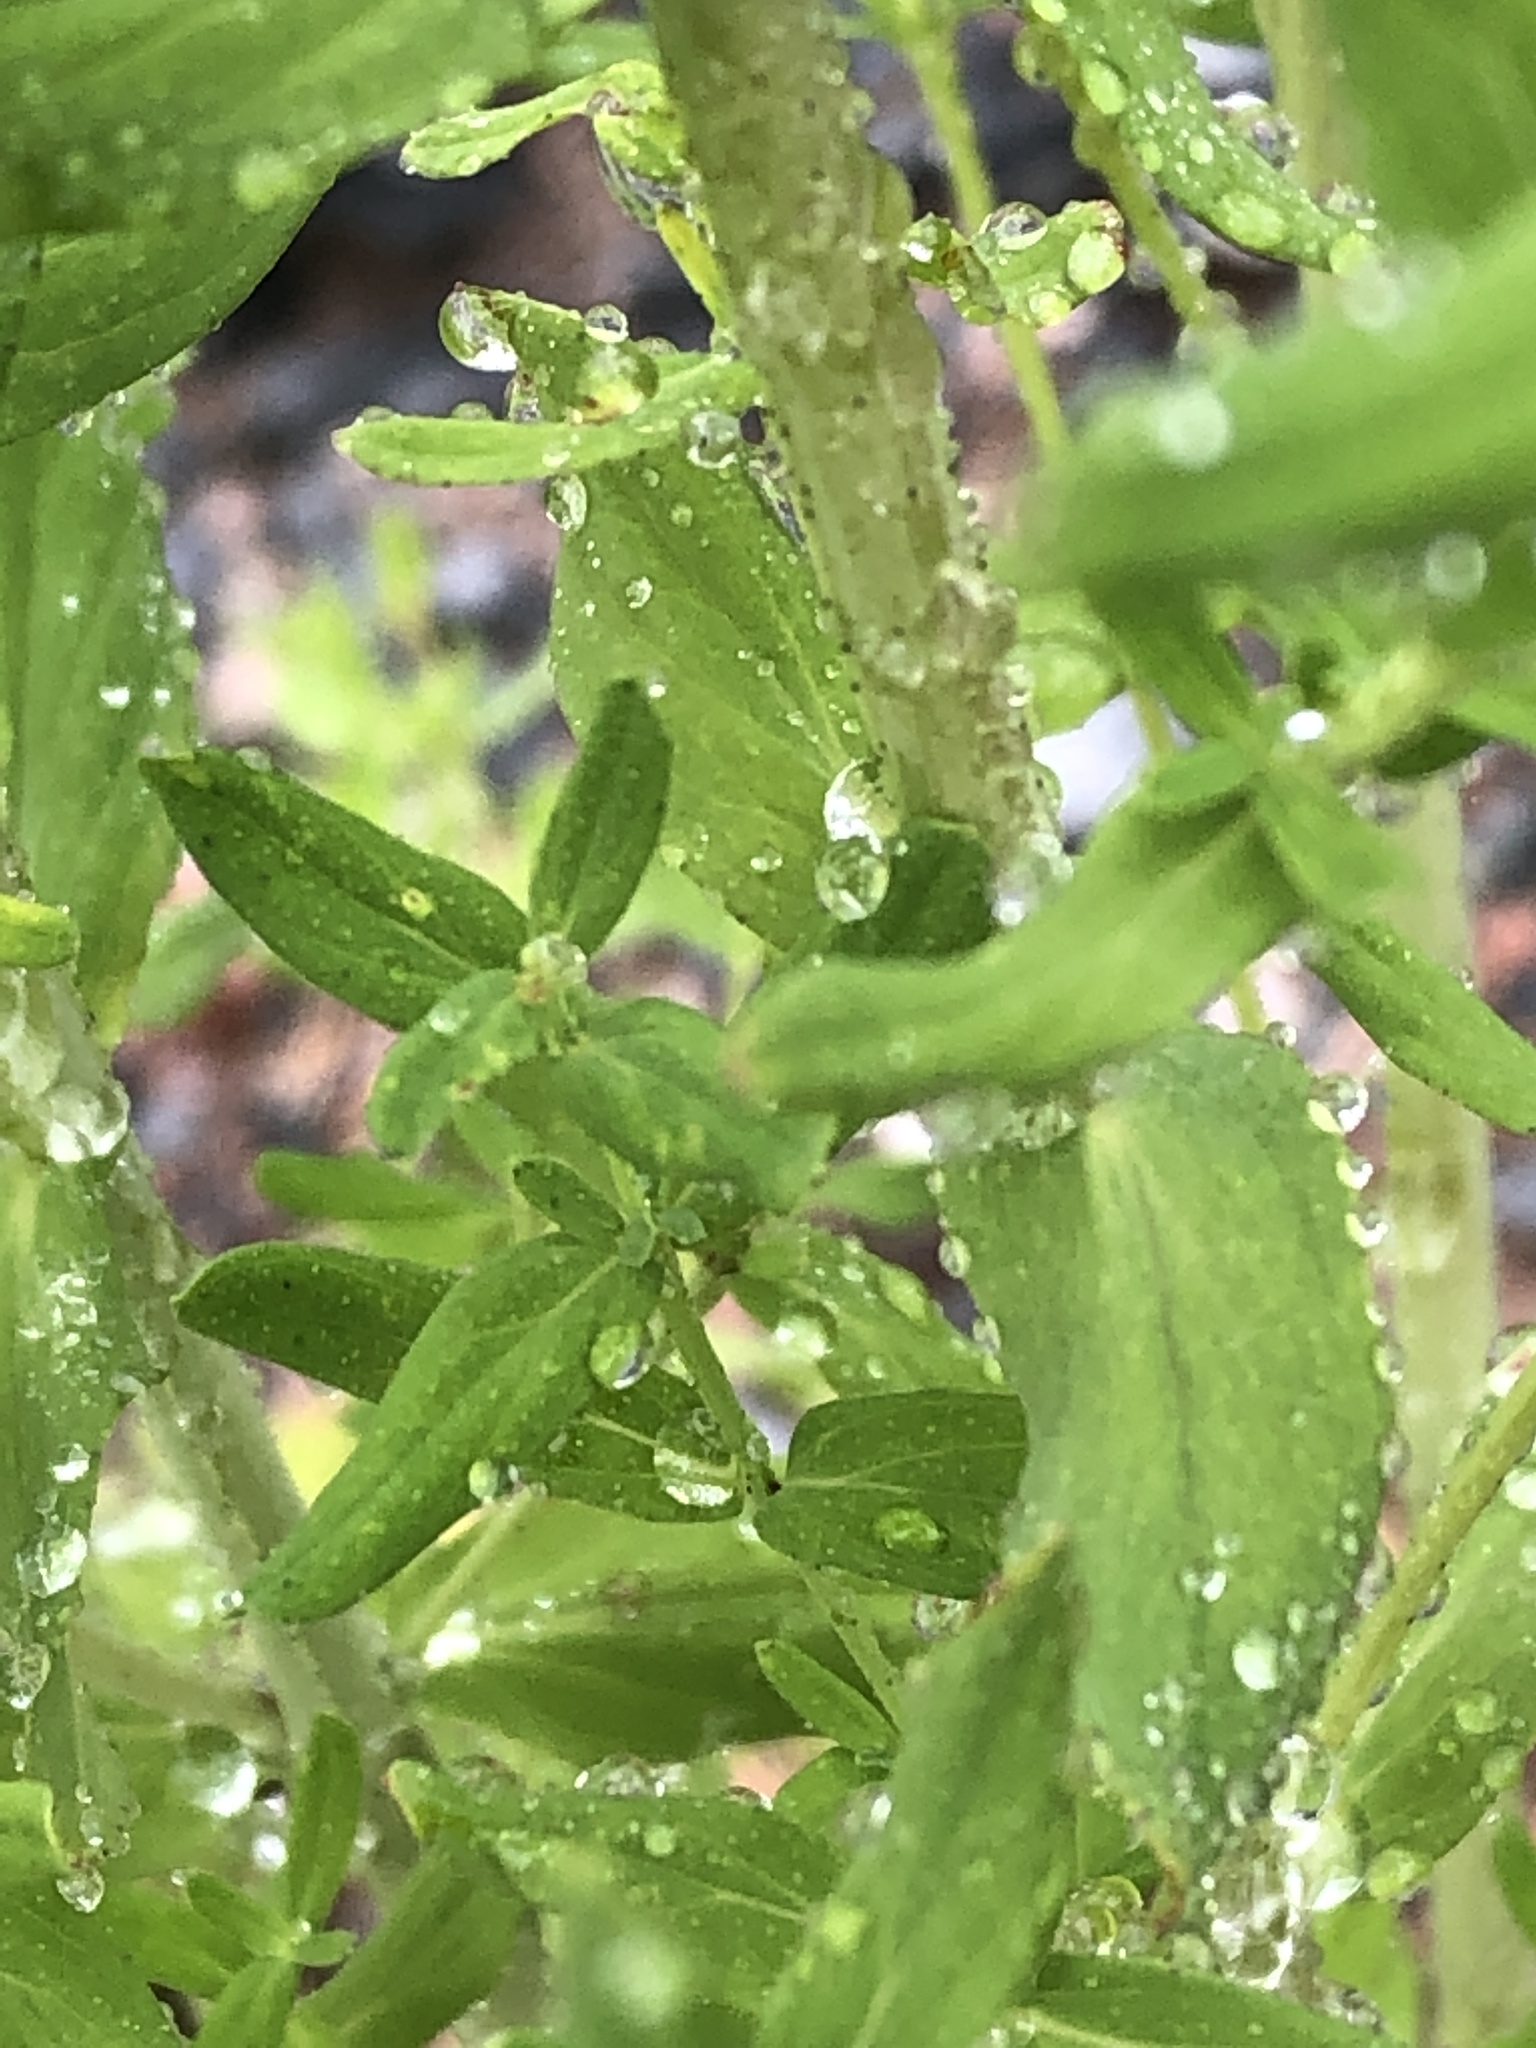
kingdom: Plantae
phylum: Tracheophyta
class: Magnoliopsida
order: Malpighiales
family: Hypericaceae
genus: Hypericum
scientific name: Hypericum perforatum
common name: Common st. johnswort
